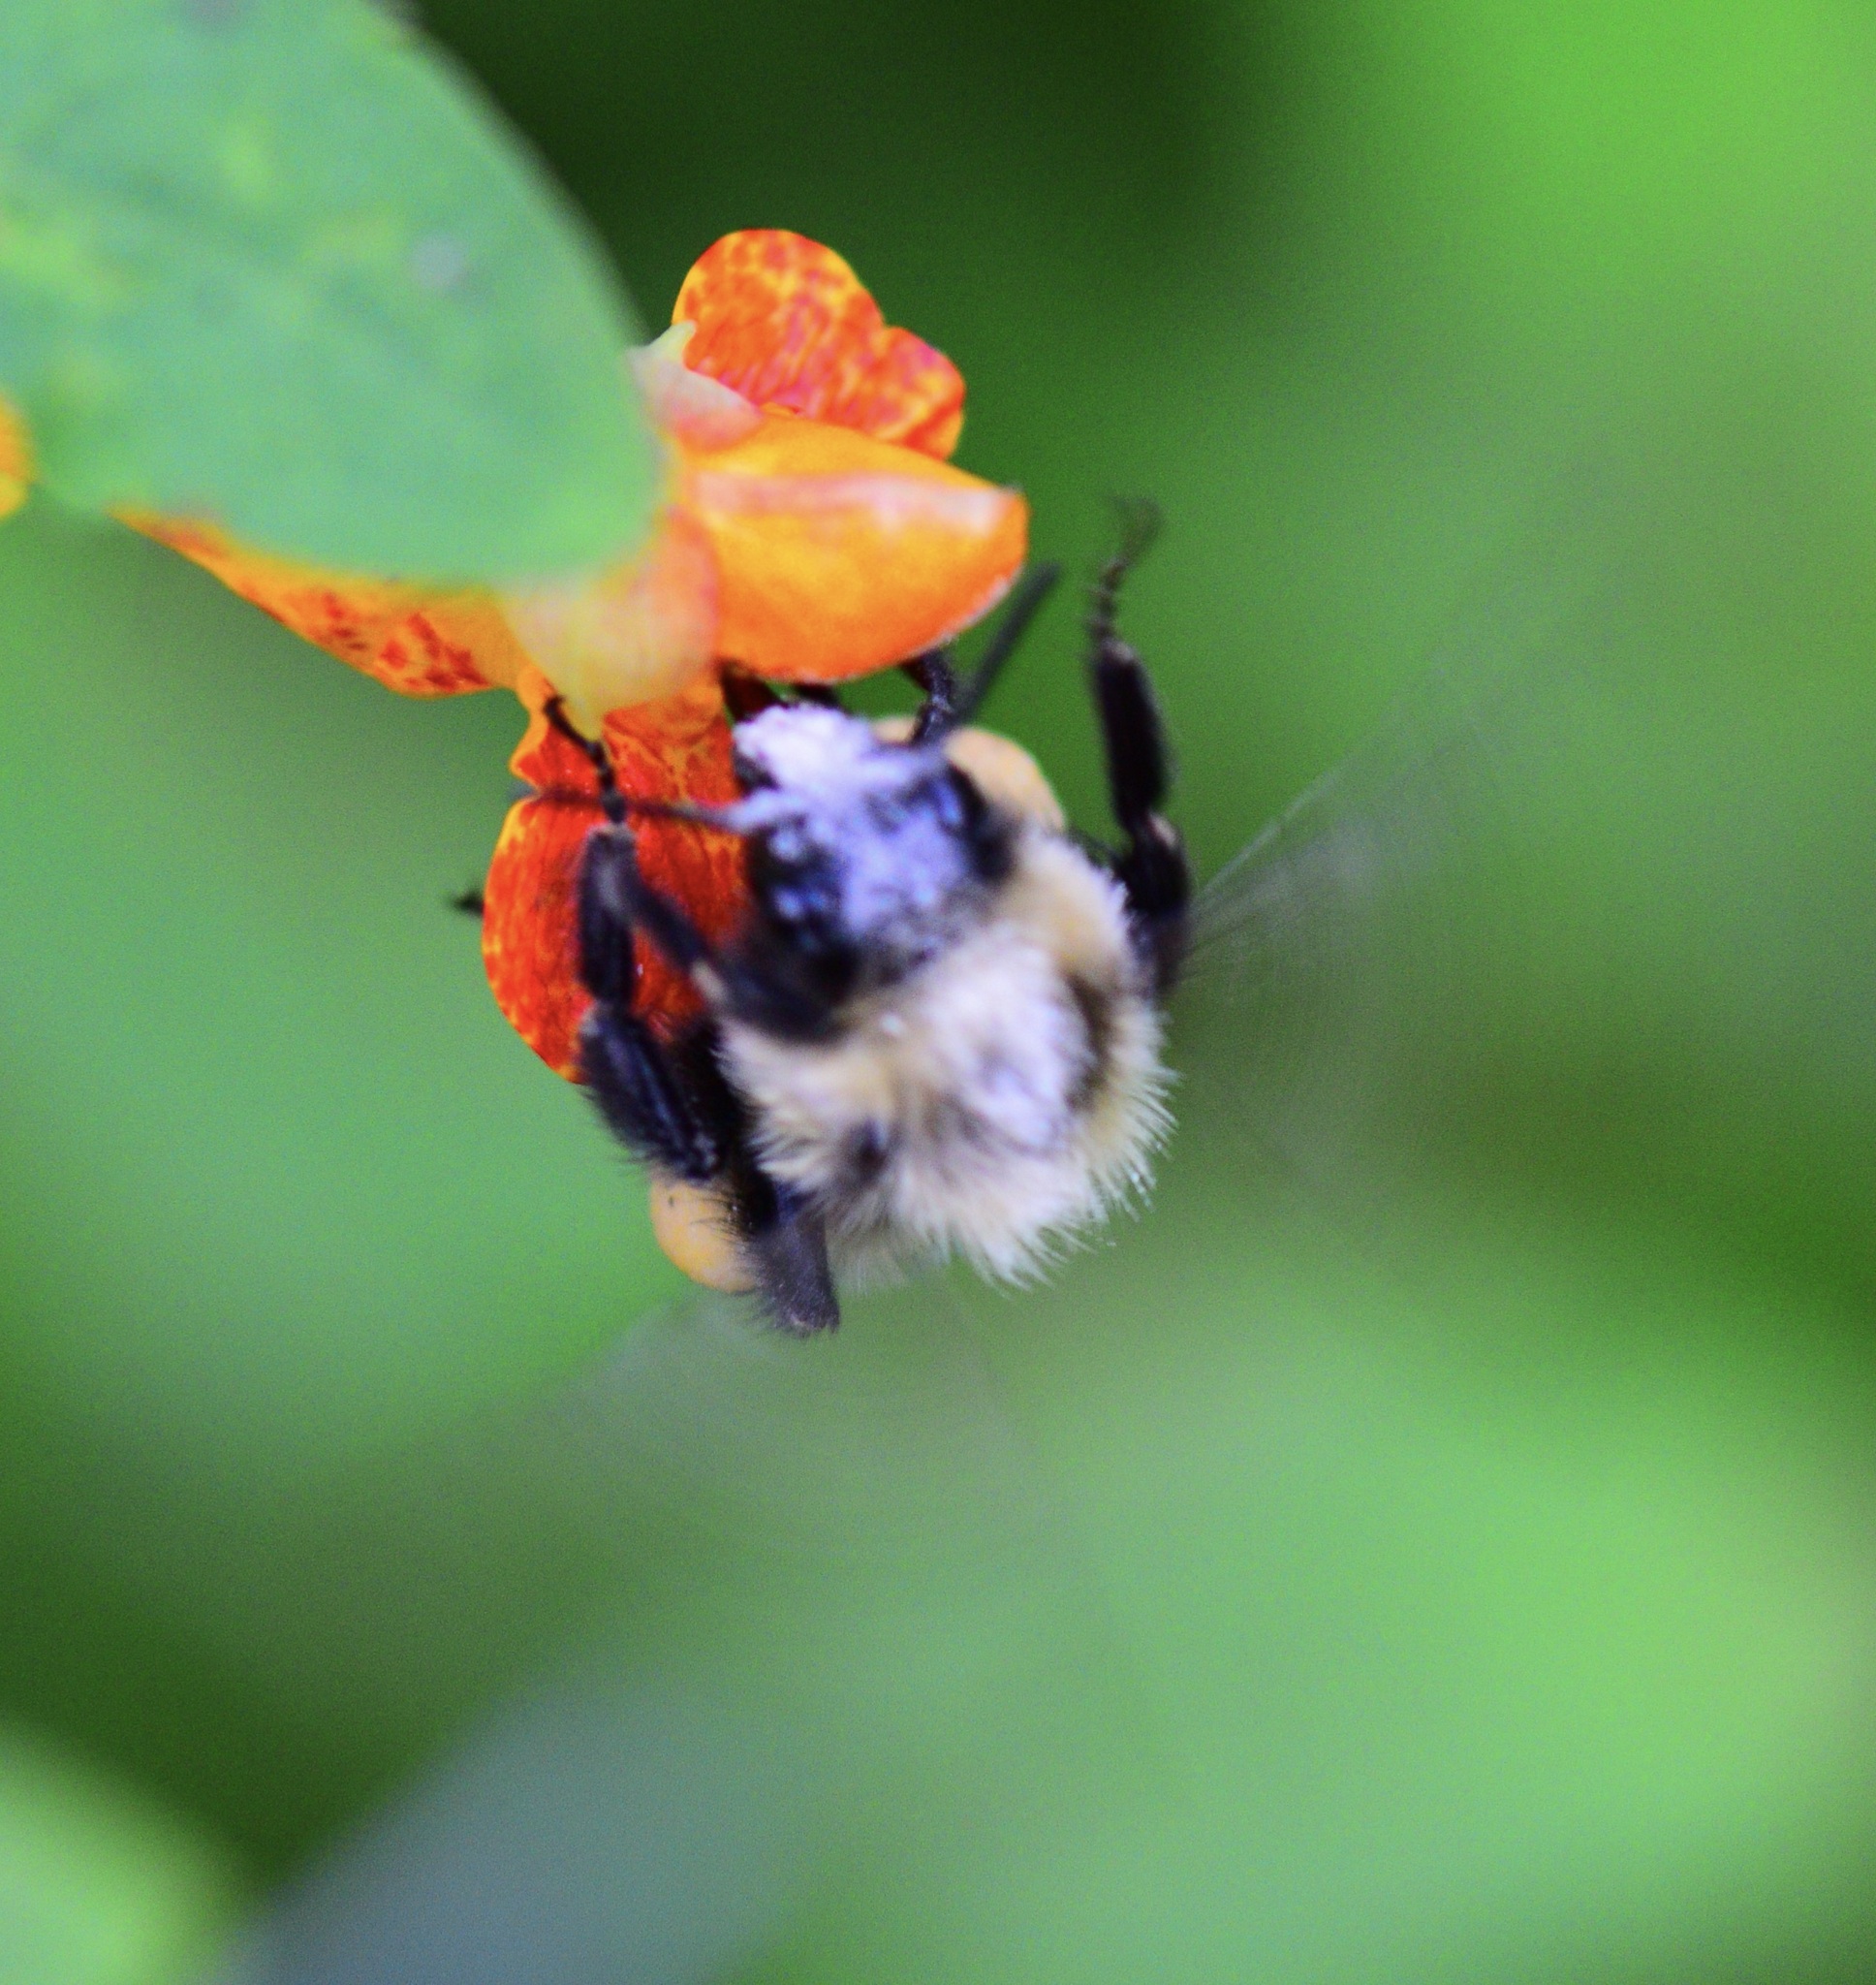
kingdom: Animalia
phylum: Arthropoda
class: Insecta
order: Hymenoptera
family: Apidae
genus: Bombus
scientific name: Bombus impatiens
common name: Common eastern bumble bee
